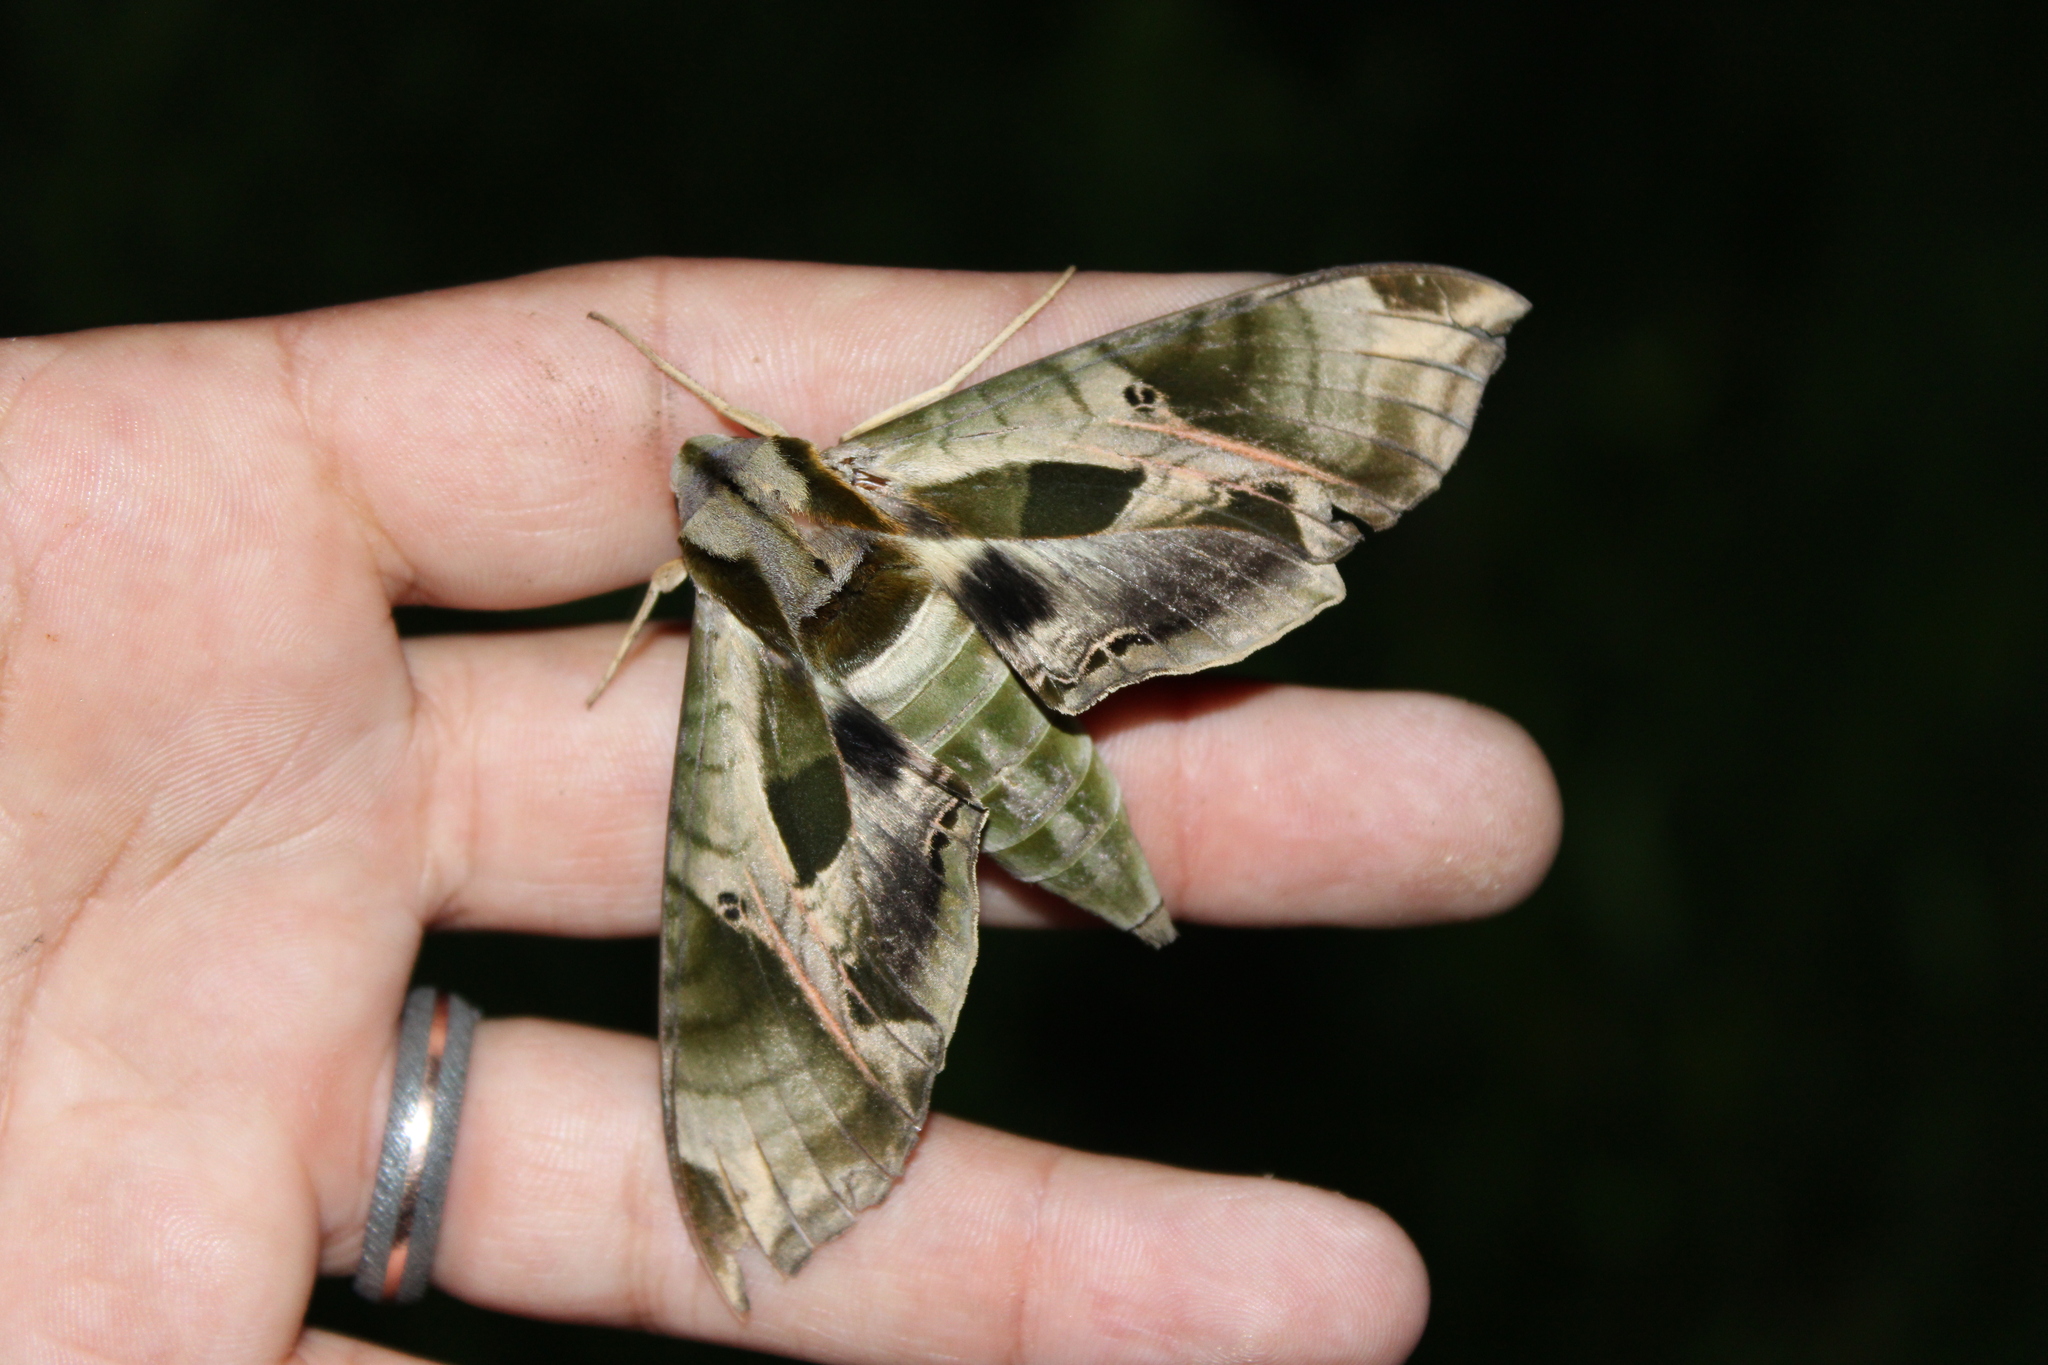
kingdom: Animalia
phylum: Arthropoda
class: Insecta
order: Lepidoptera
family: Sphingidae
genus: Eumorpha
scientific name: Eumorpha pandorus
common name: Pandora sphinx
